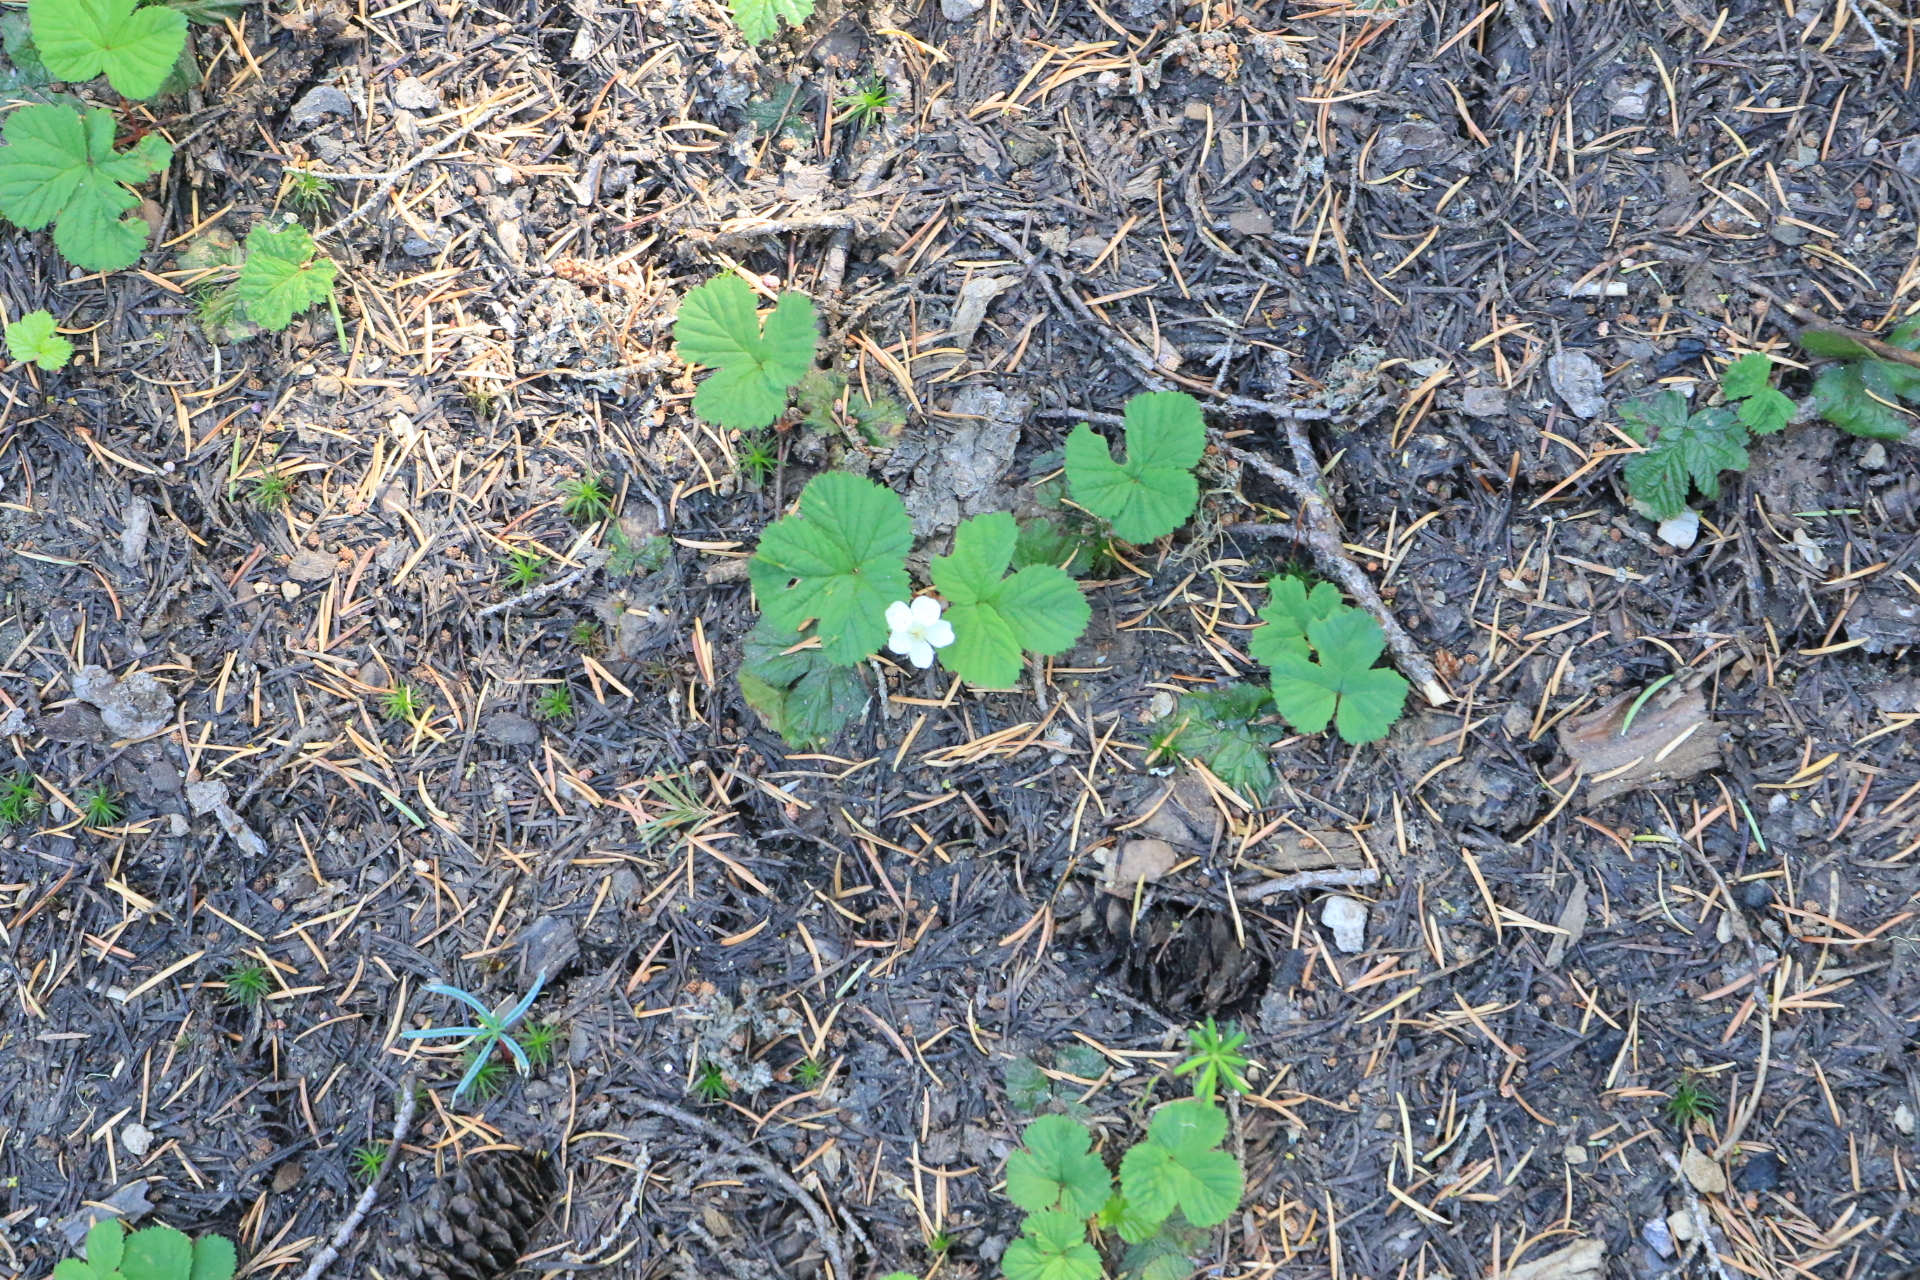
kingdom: Plantae
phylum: Tracheophyta
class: Magnoliopsida
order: Rosales
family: Rosaceae
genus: Rubus
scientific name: Rubus lasiococcus
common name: Dwarf bramble
